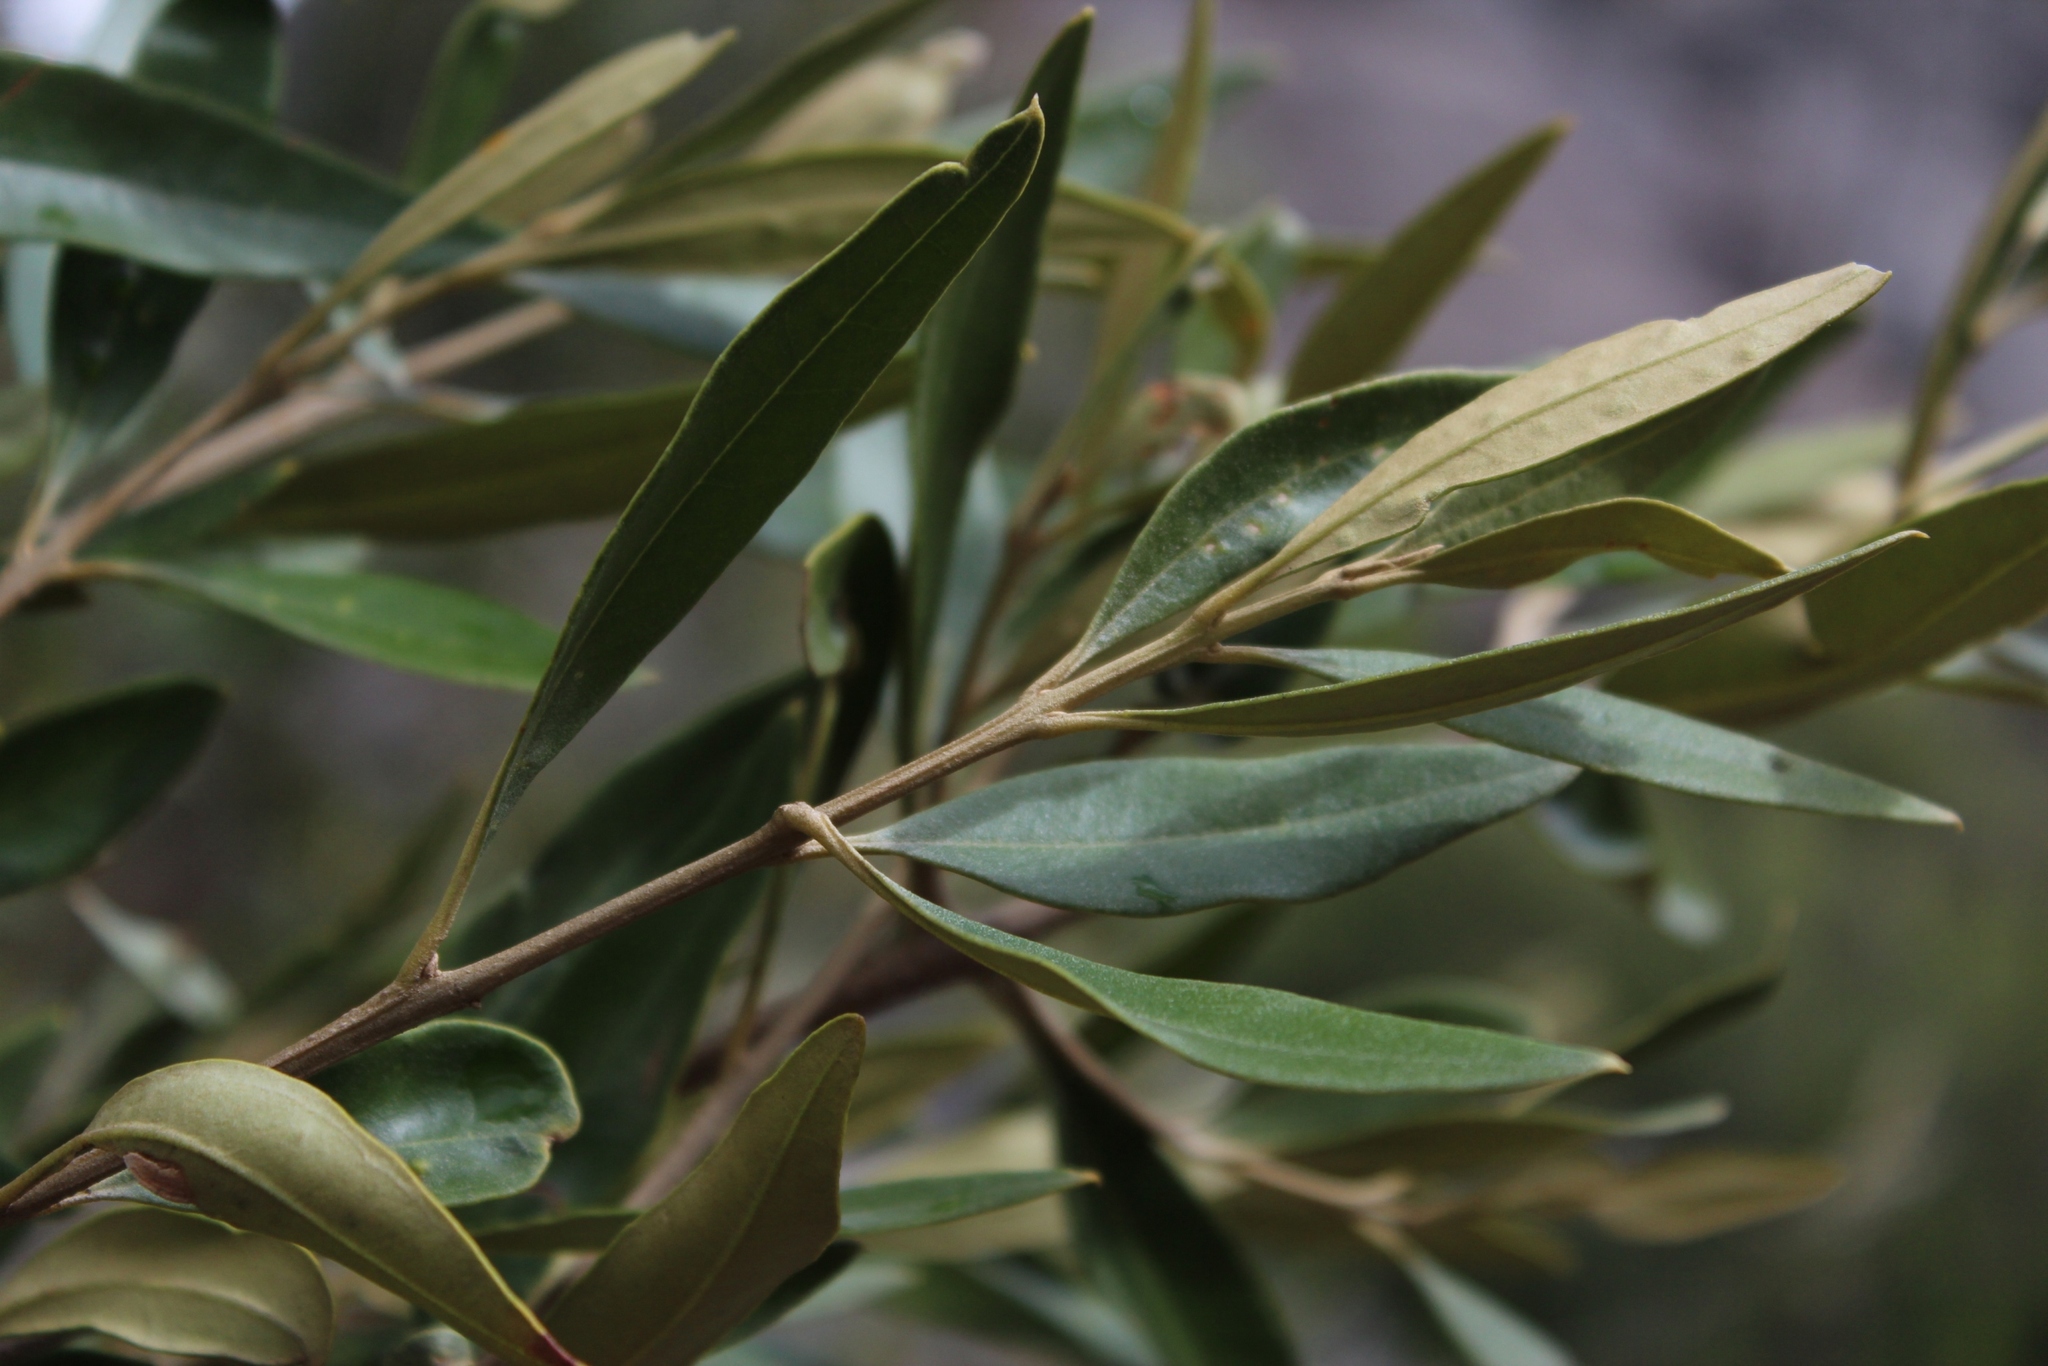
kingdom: Plantae
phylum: Tracheophyta
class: Magnoliopsida
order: Lamiales
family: Oleaceae
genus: Olea
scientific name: Olea europaea
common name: Olive
